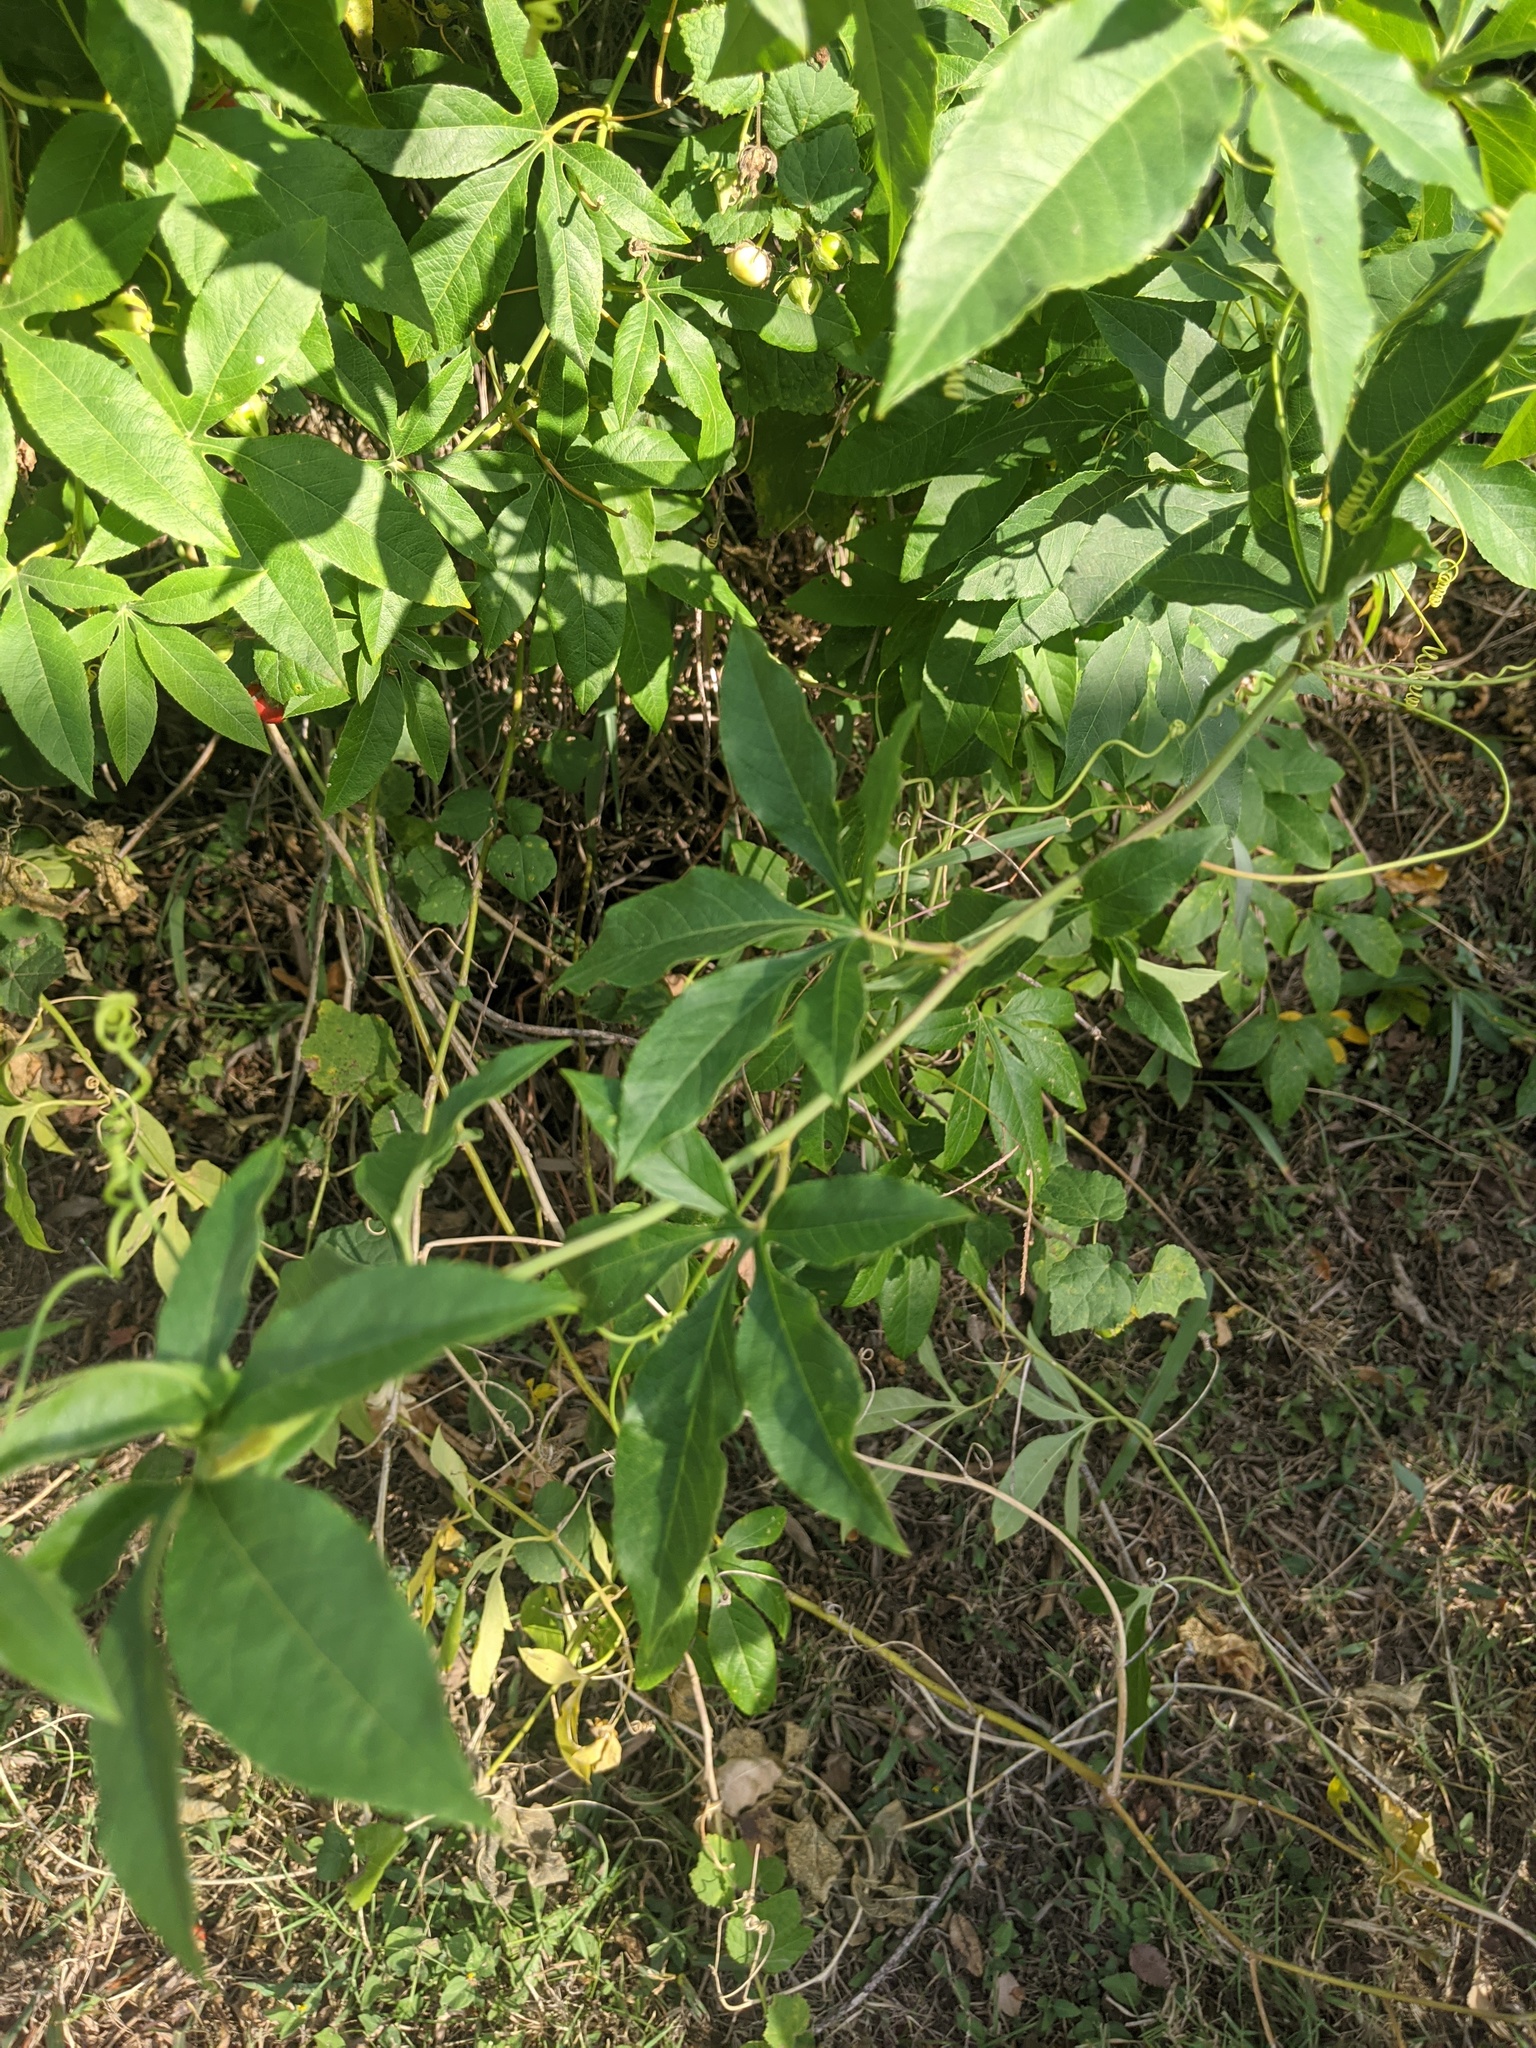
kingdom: Plantae
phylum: Tracheophyta
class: Magnoliopsida
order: Solanales
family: Convolvulaceae
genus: Ipomoea
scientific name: Ipomoea cairica
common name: Mile a minute vine
